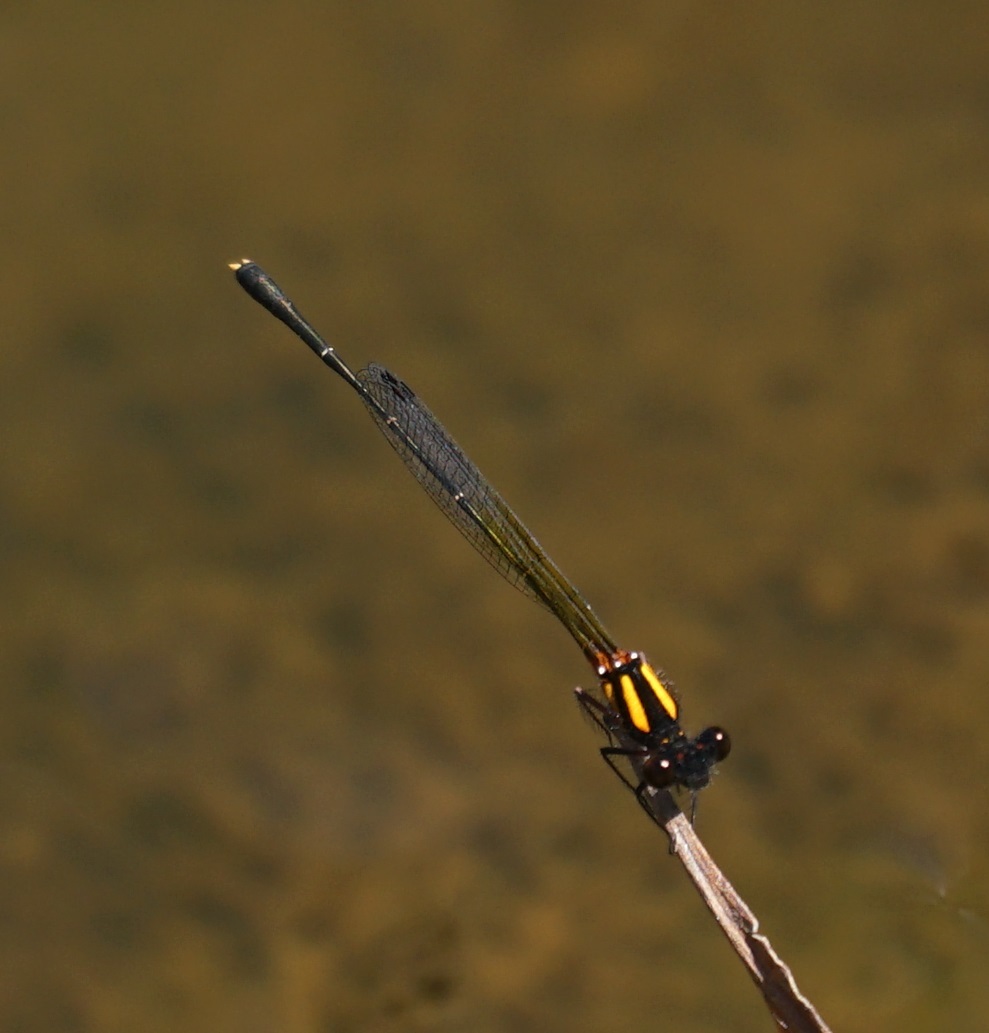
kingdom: Animalia
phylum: Arthropoda
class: Insecta
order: Odonata
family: Platycnemididae
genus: Nososticta
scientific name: Nososticta solida
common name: Orange threadtail
